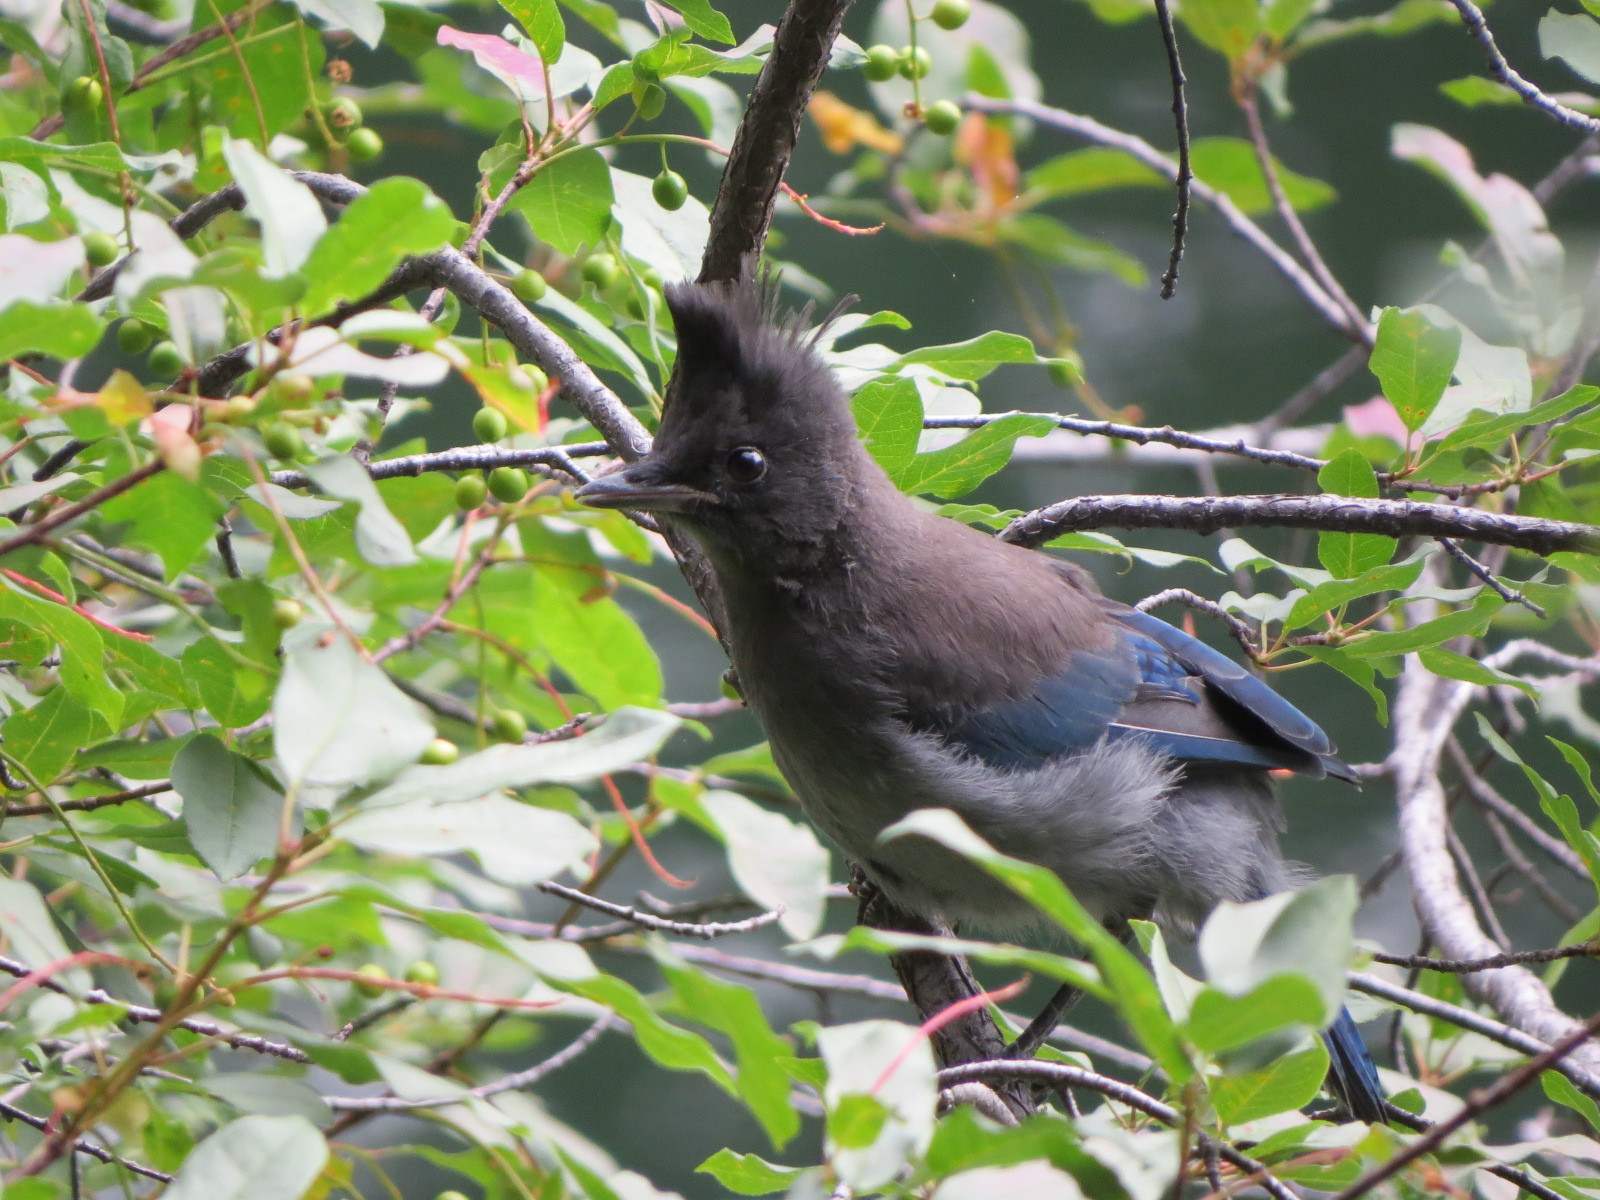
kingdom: Animalia
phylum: Chordata
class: Aves
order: Passeriformes
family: Corvidae
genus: Cyanocitta
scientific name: Cyanocitta stelleri
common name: Steller's jay
